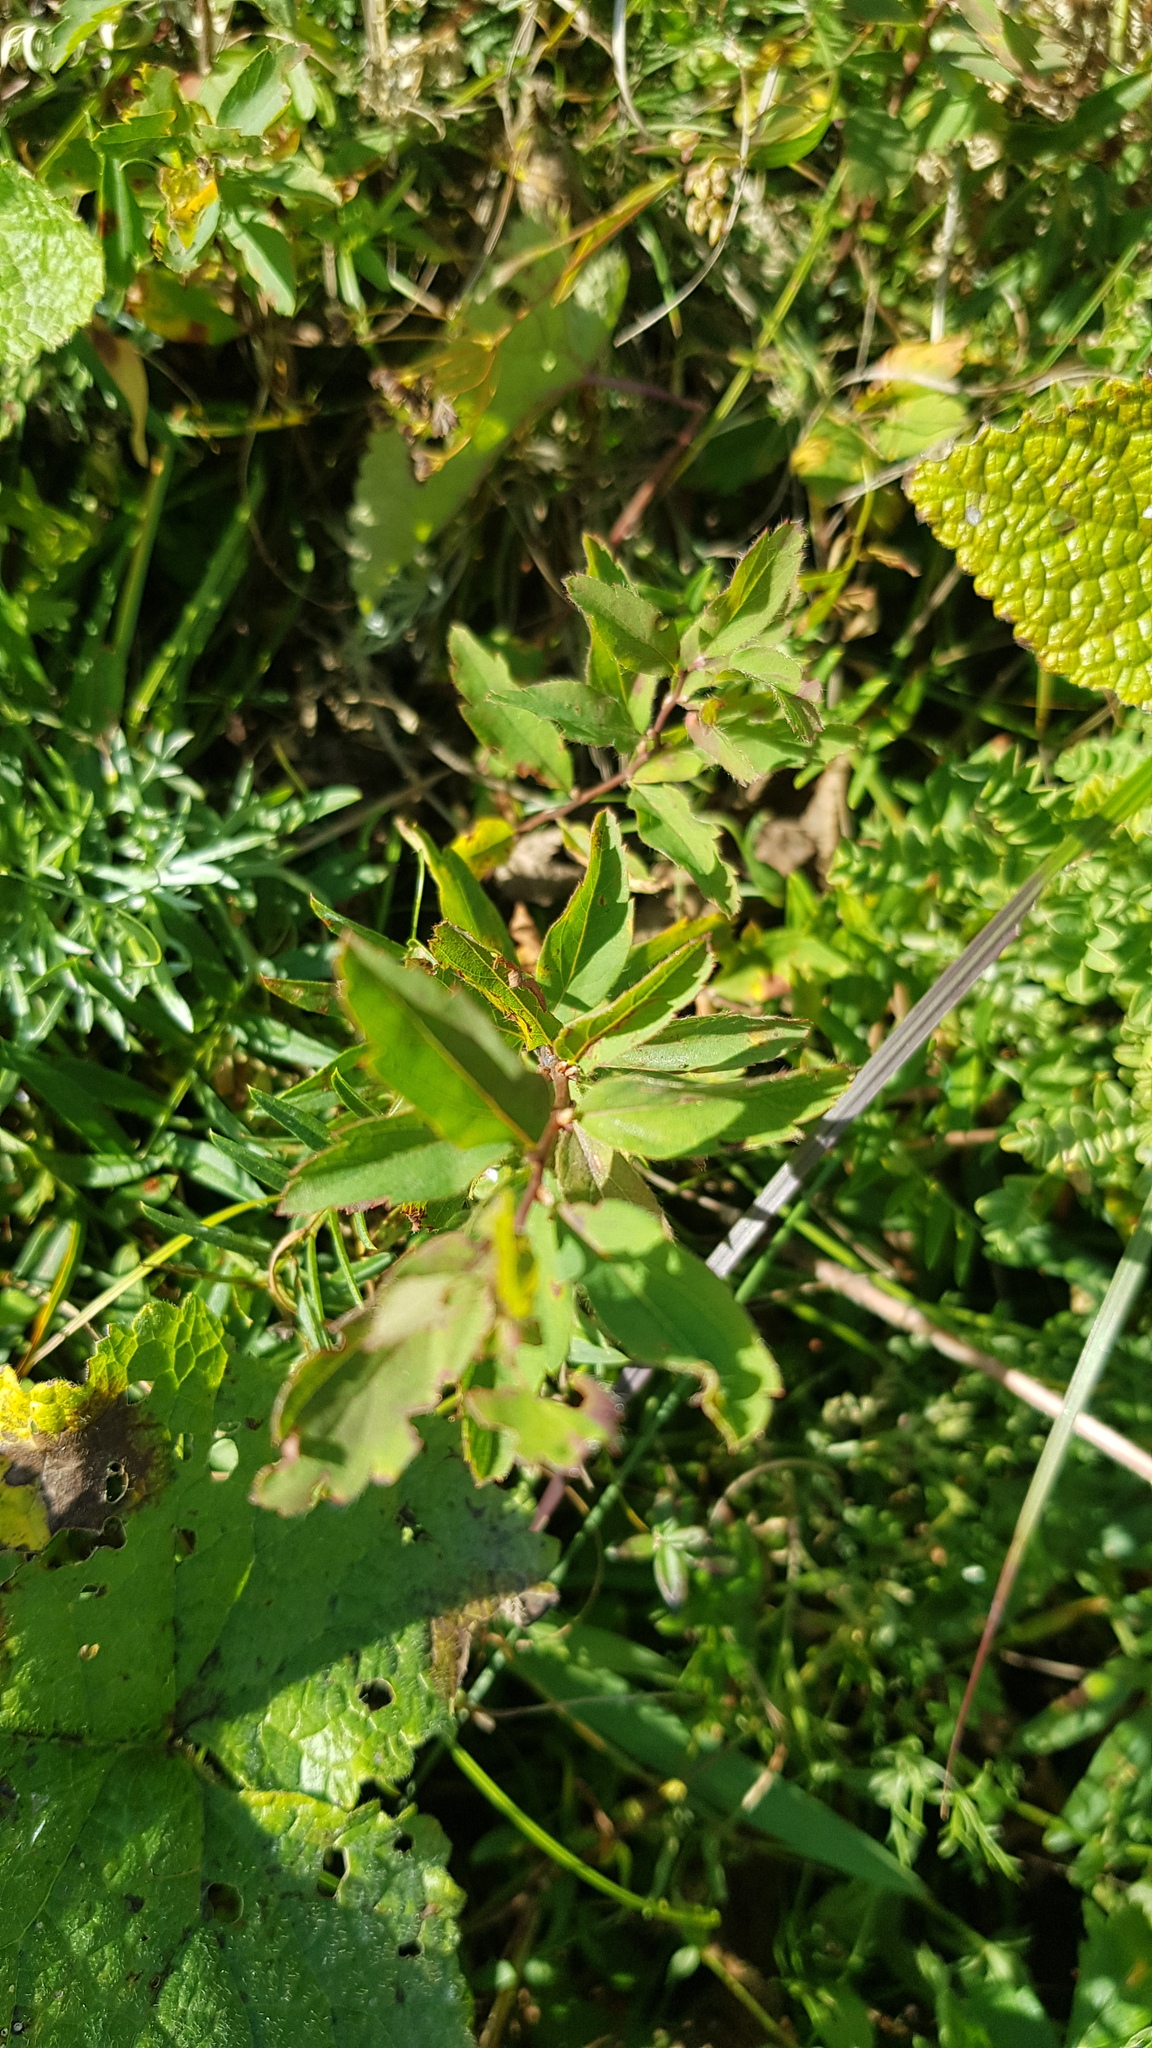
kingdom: Plantae
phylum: Tracheophyta
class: Magnoliopsida
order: Rosales
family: Rosaceae
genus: Spiraea
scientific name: Spiraea salicifolia
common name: Bridewort
